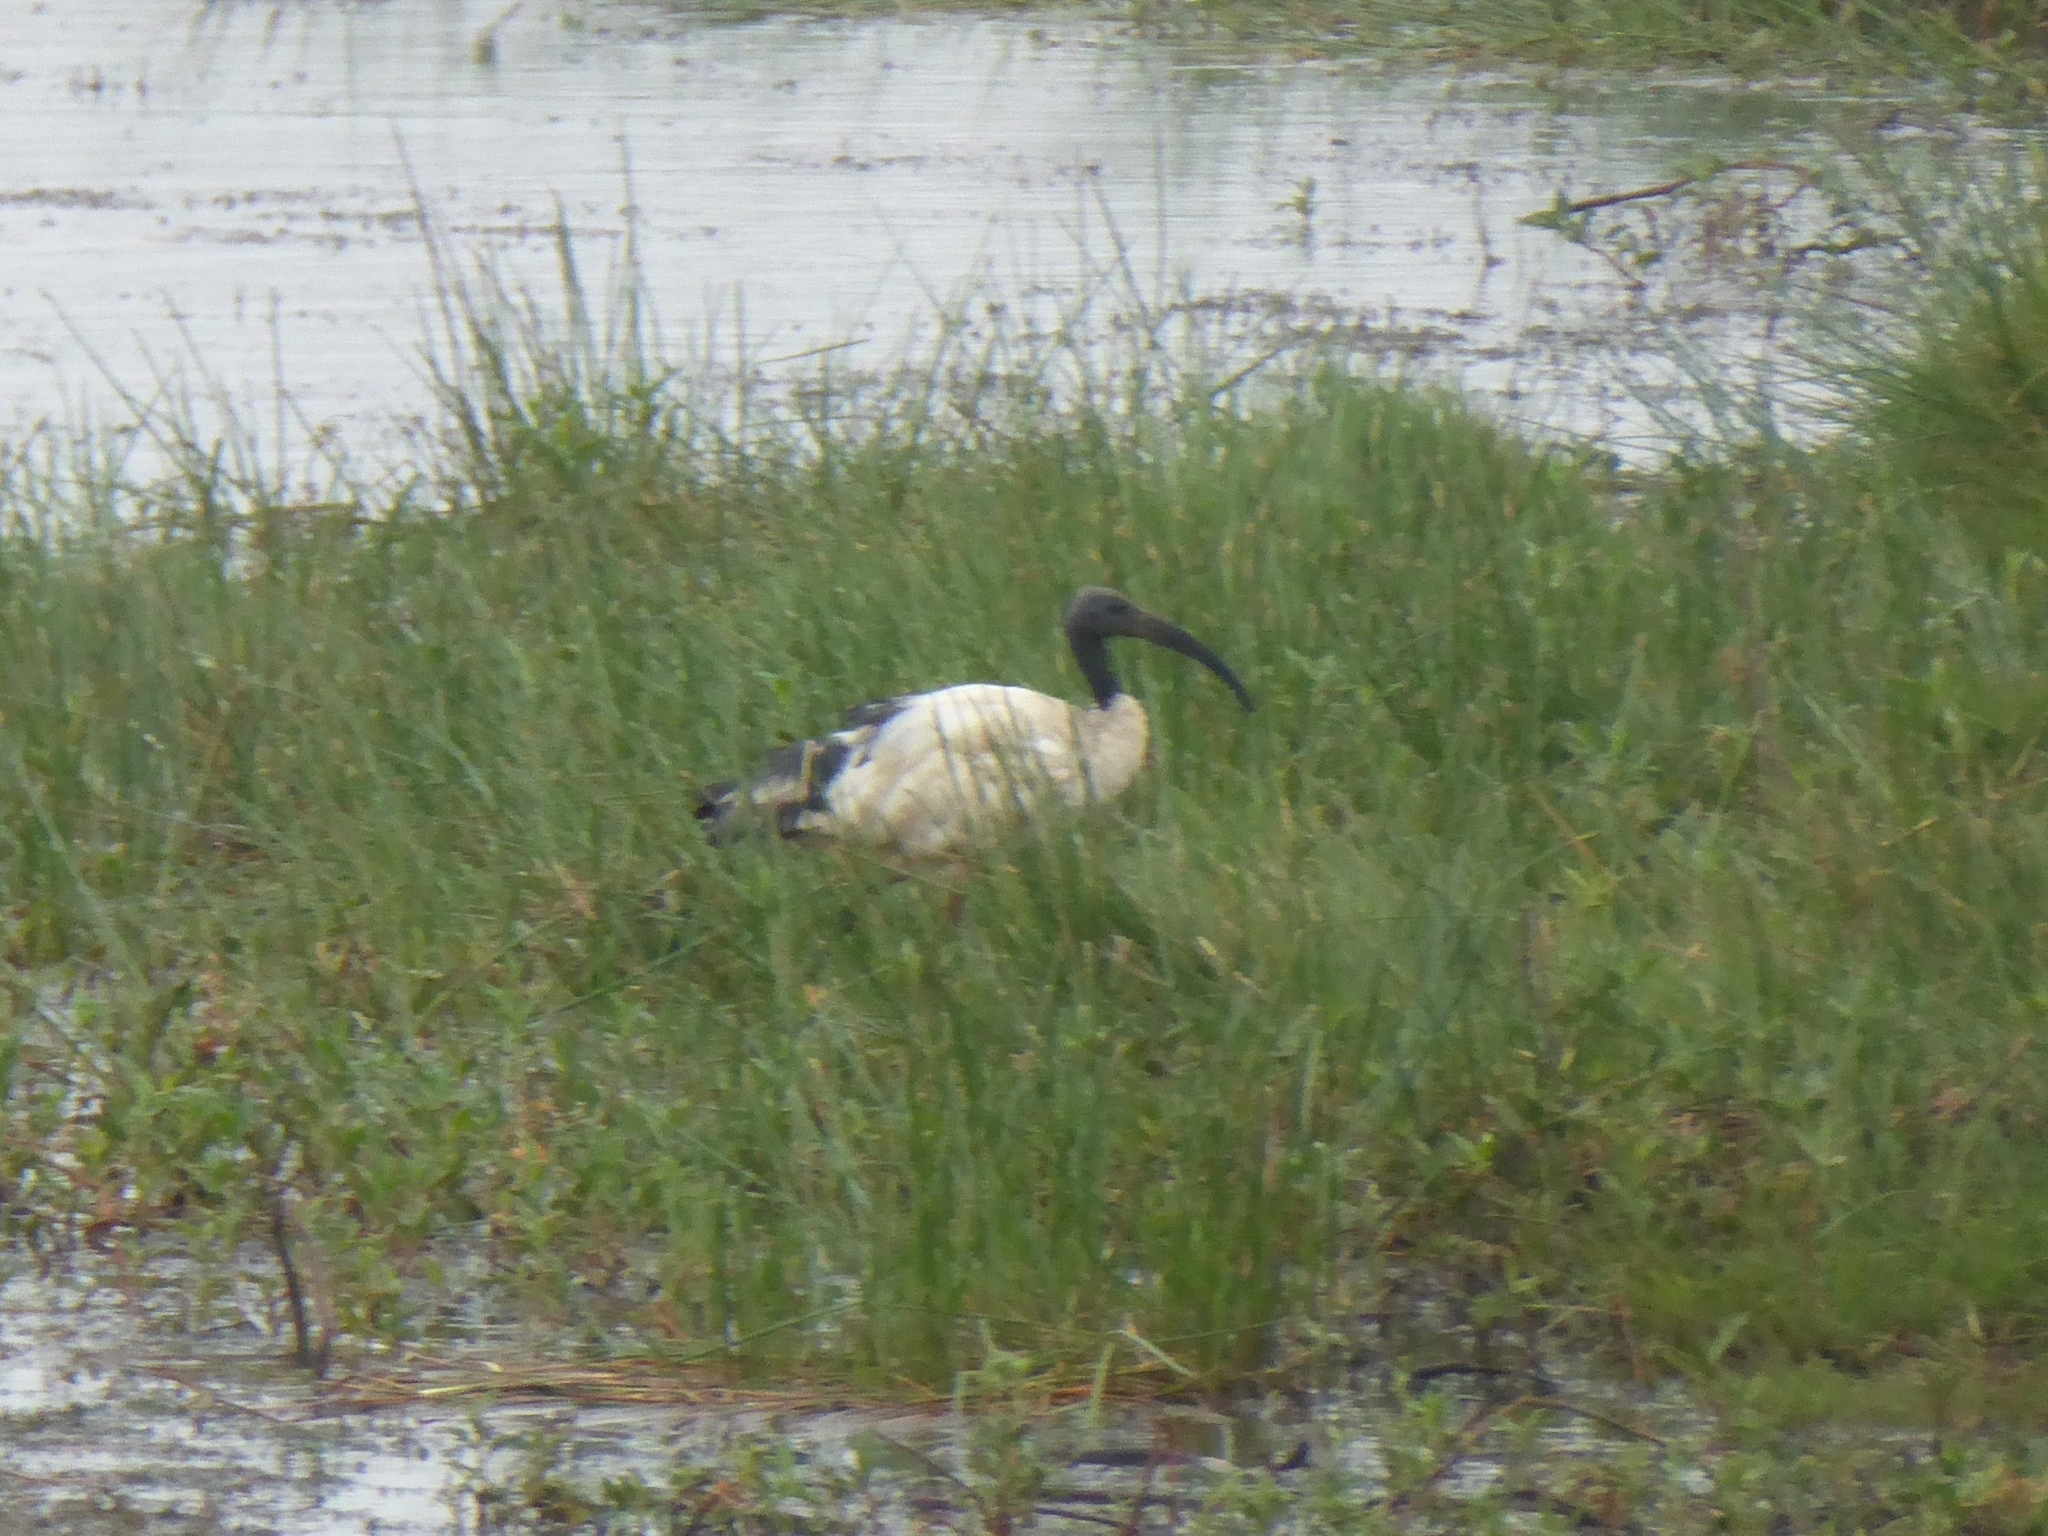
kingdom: Animalia
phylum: Chordata
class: Aves
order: Pelecaniformes
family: Threskiornithidae
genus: Threskiornis
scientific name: Threskiornis aethiopicus
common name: Sacred ibis
